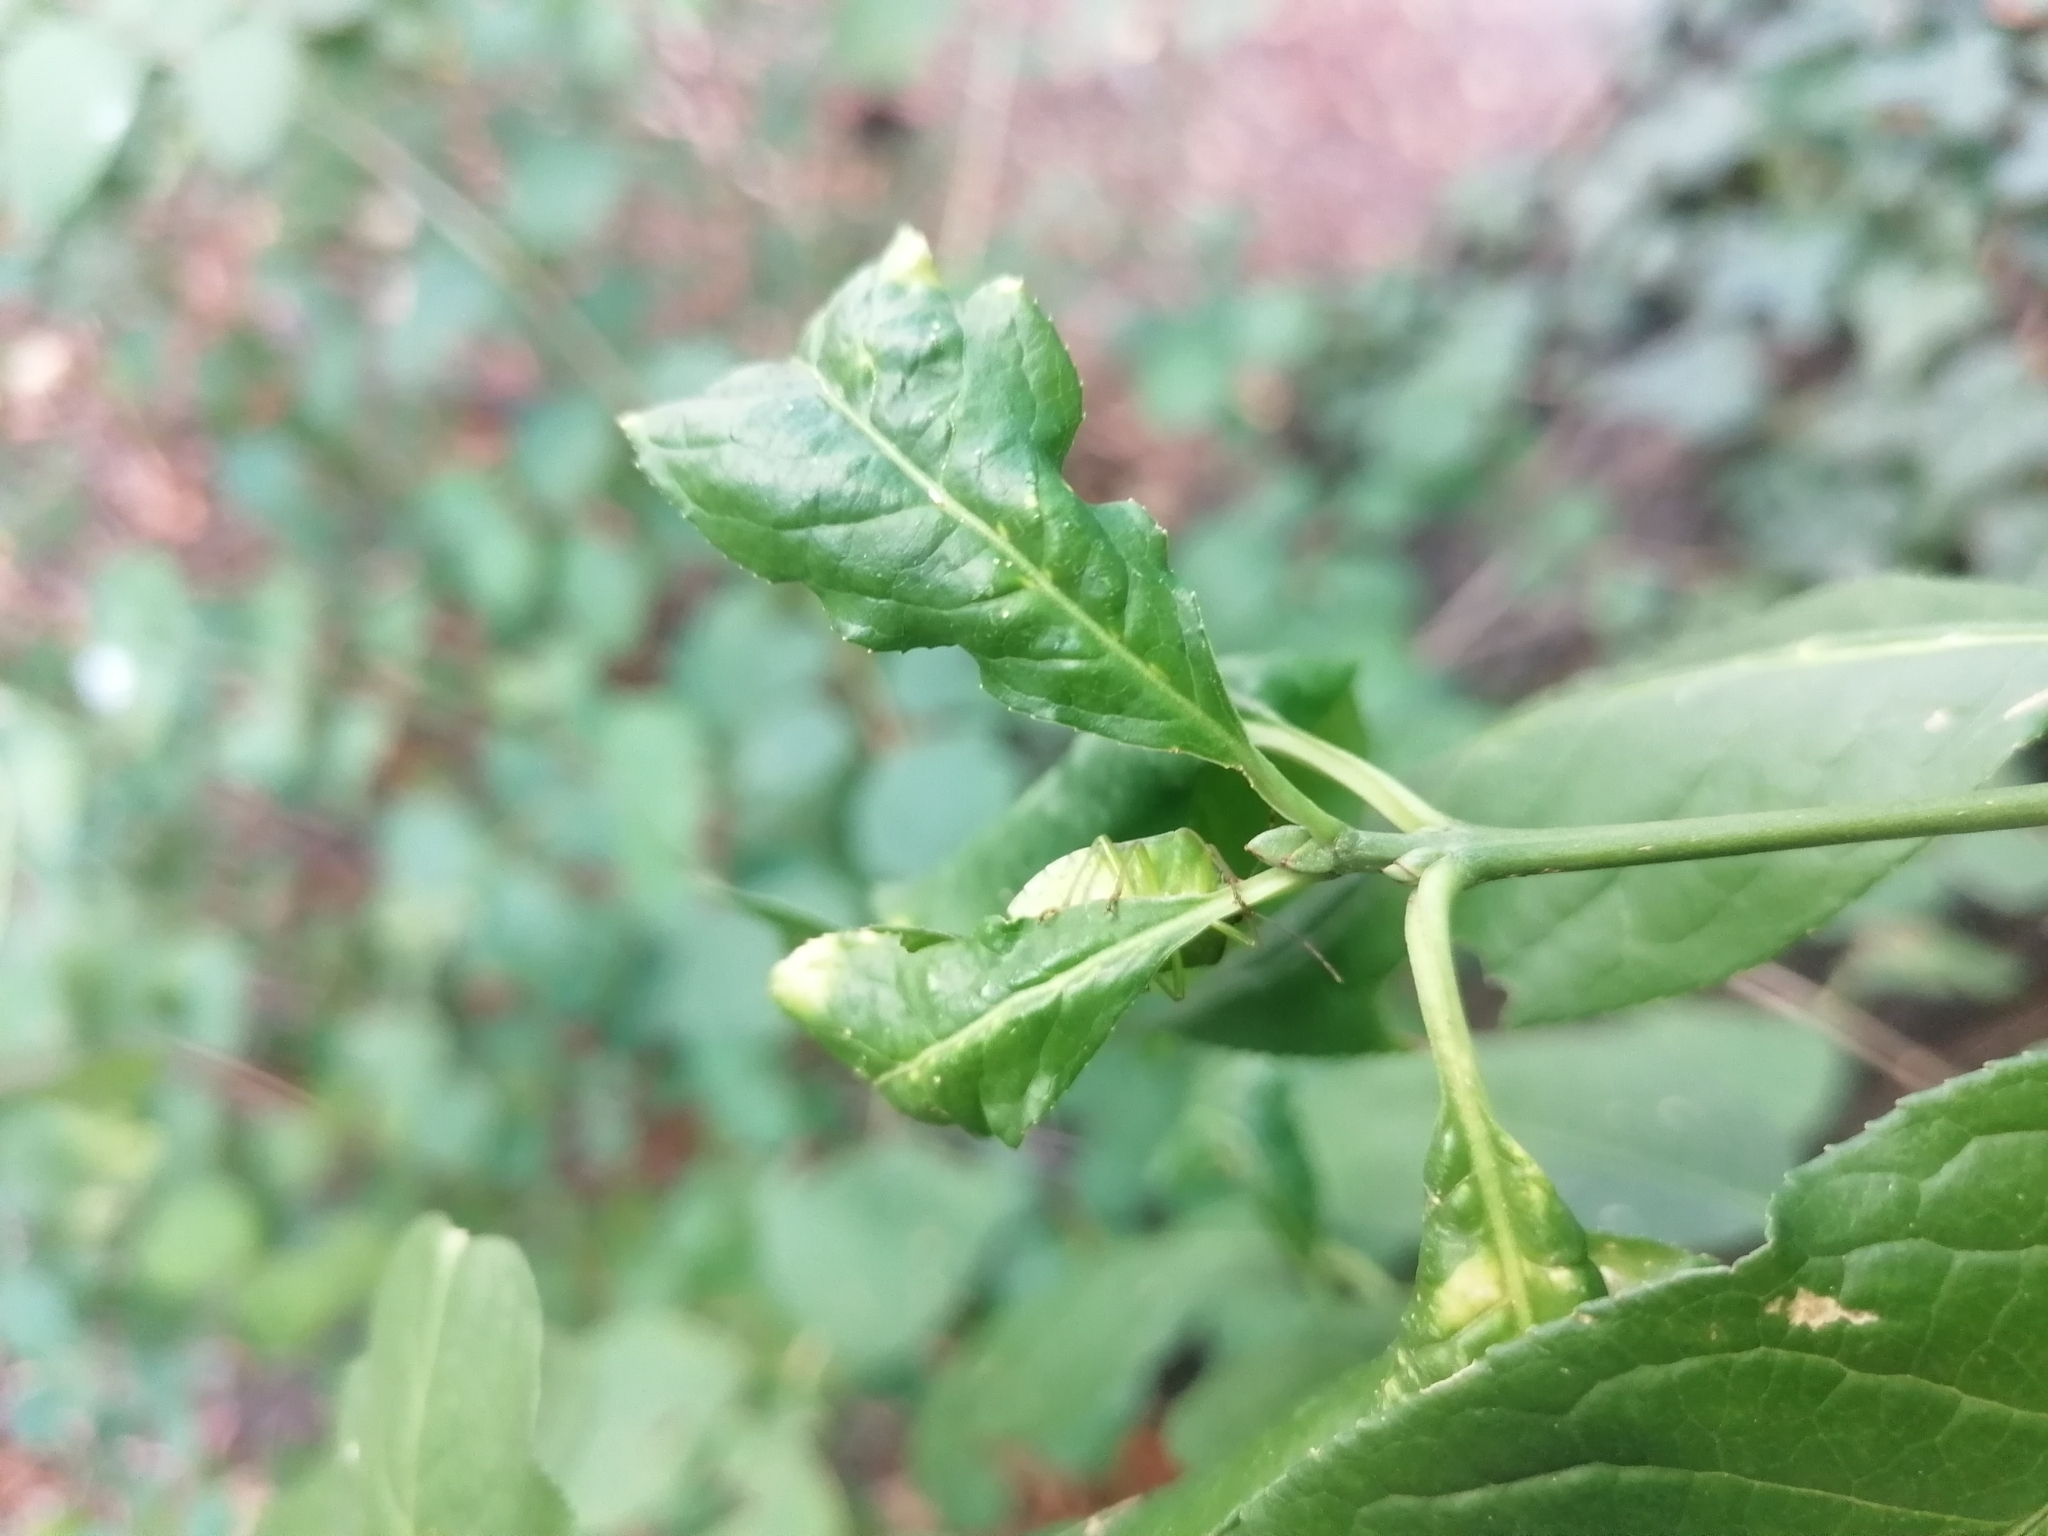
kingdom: Animalia
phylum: Arthropoda
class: Insecta
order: Hemiptera
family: Pentatomidae
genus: Nezara
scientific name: Nezara viridula
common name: Southern green stink bug
